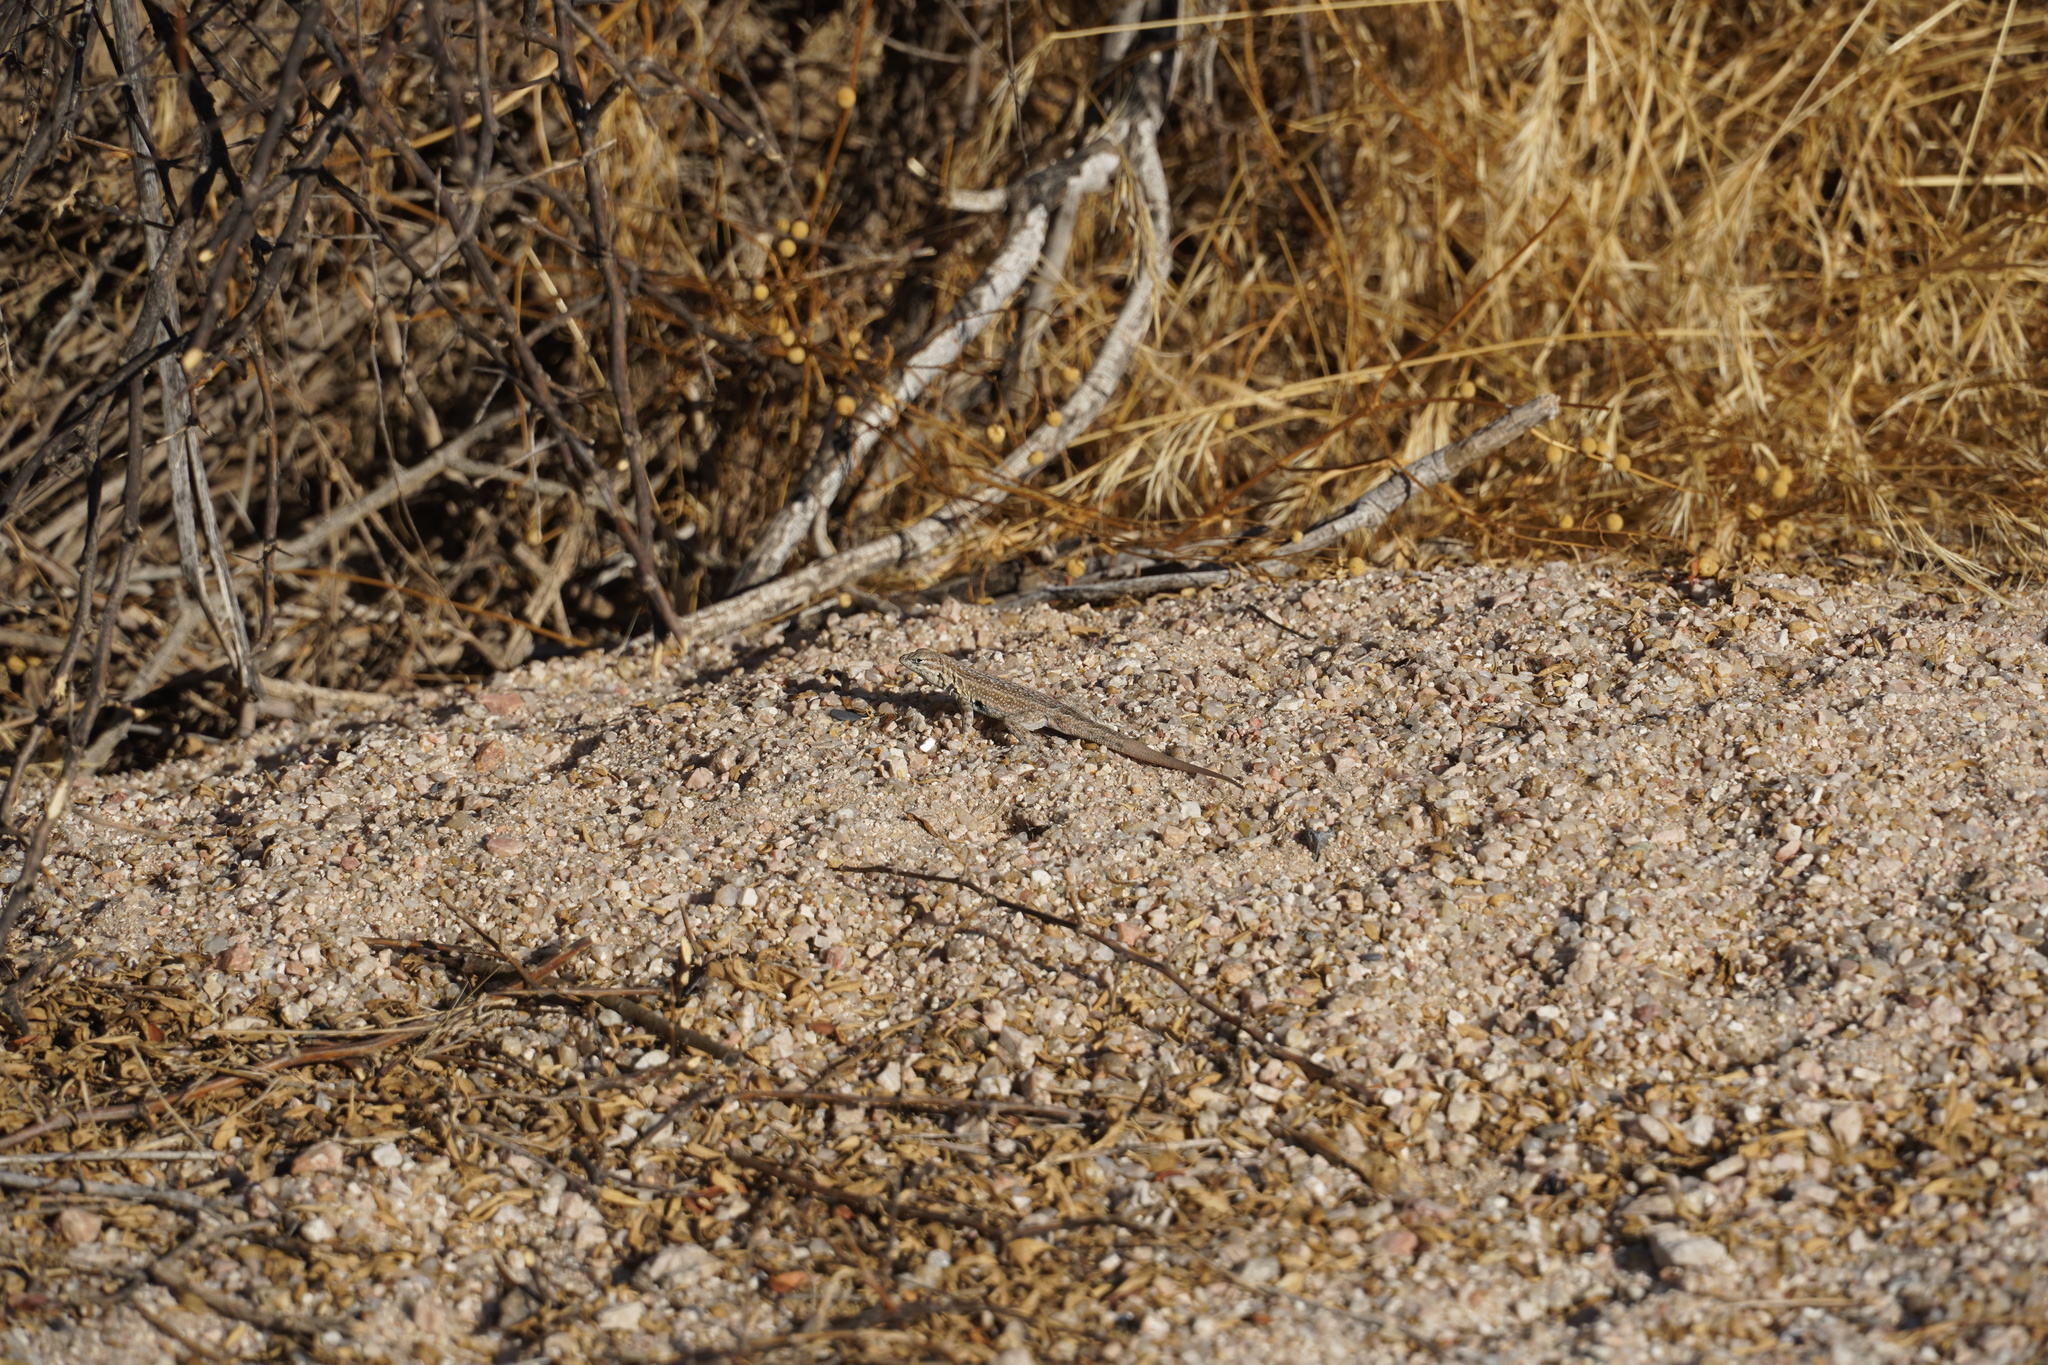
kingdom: Animalia
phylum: Chordata
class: Squamata
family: Phrynosomatidae
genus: Uta
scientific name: Uta stansburiana
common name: Side-blotched lizard
